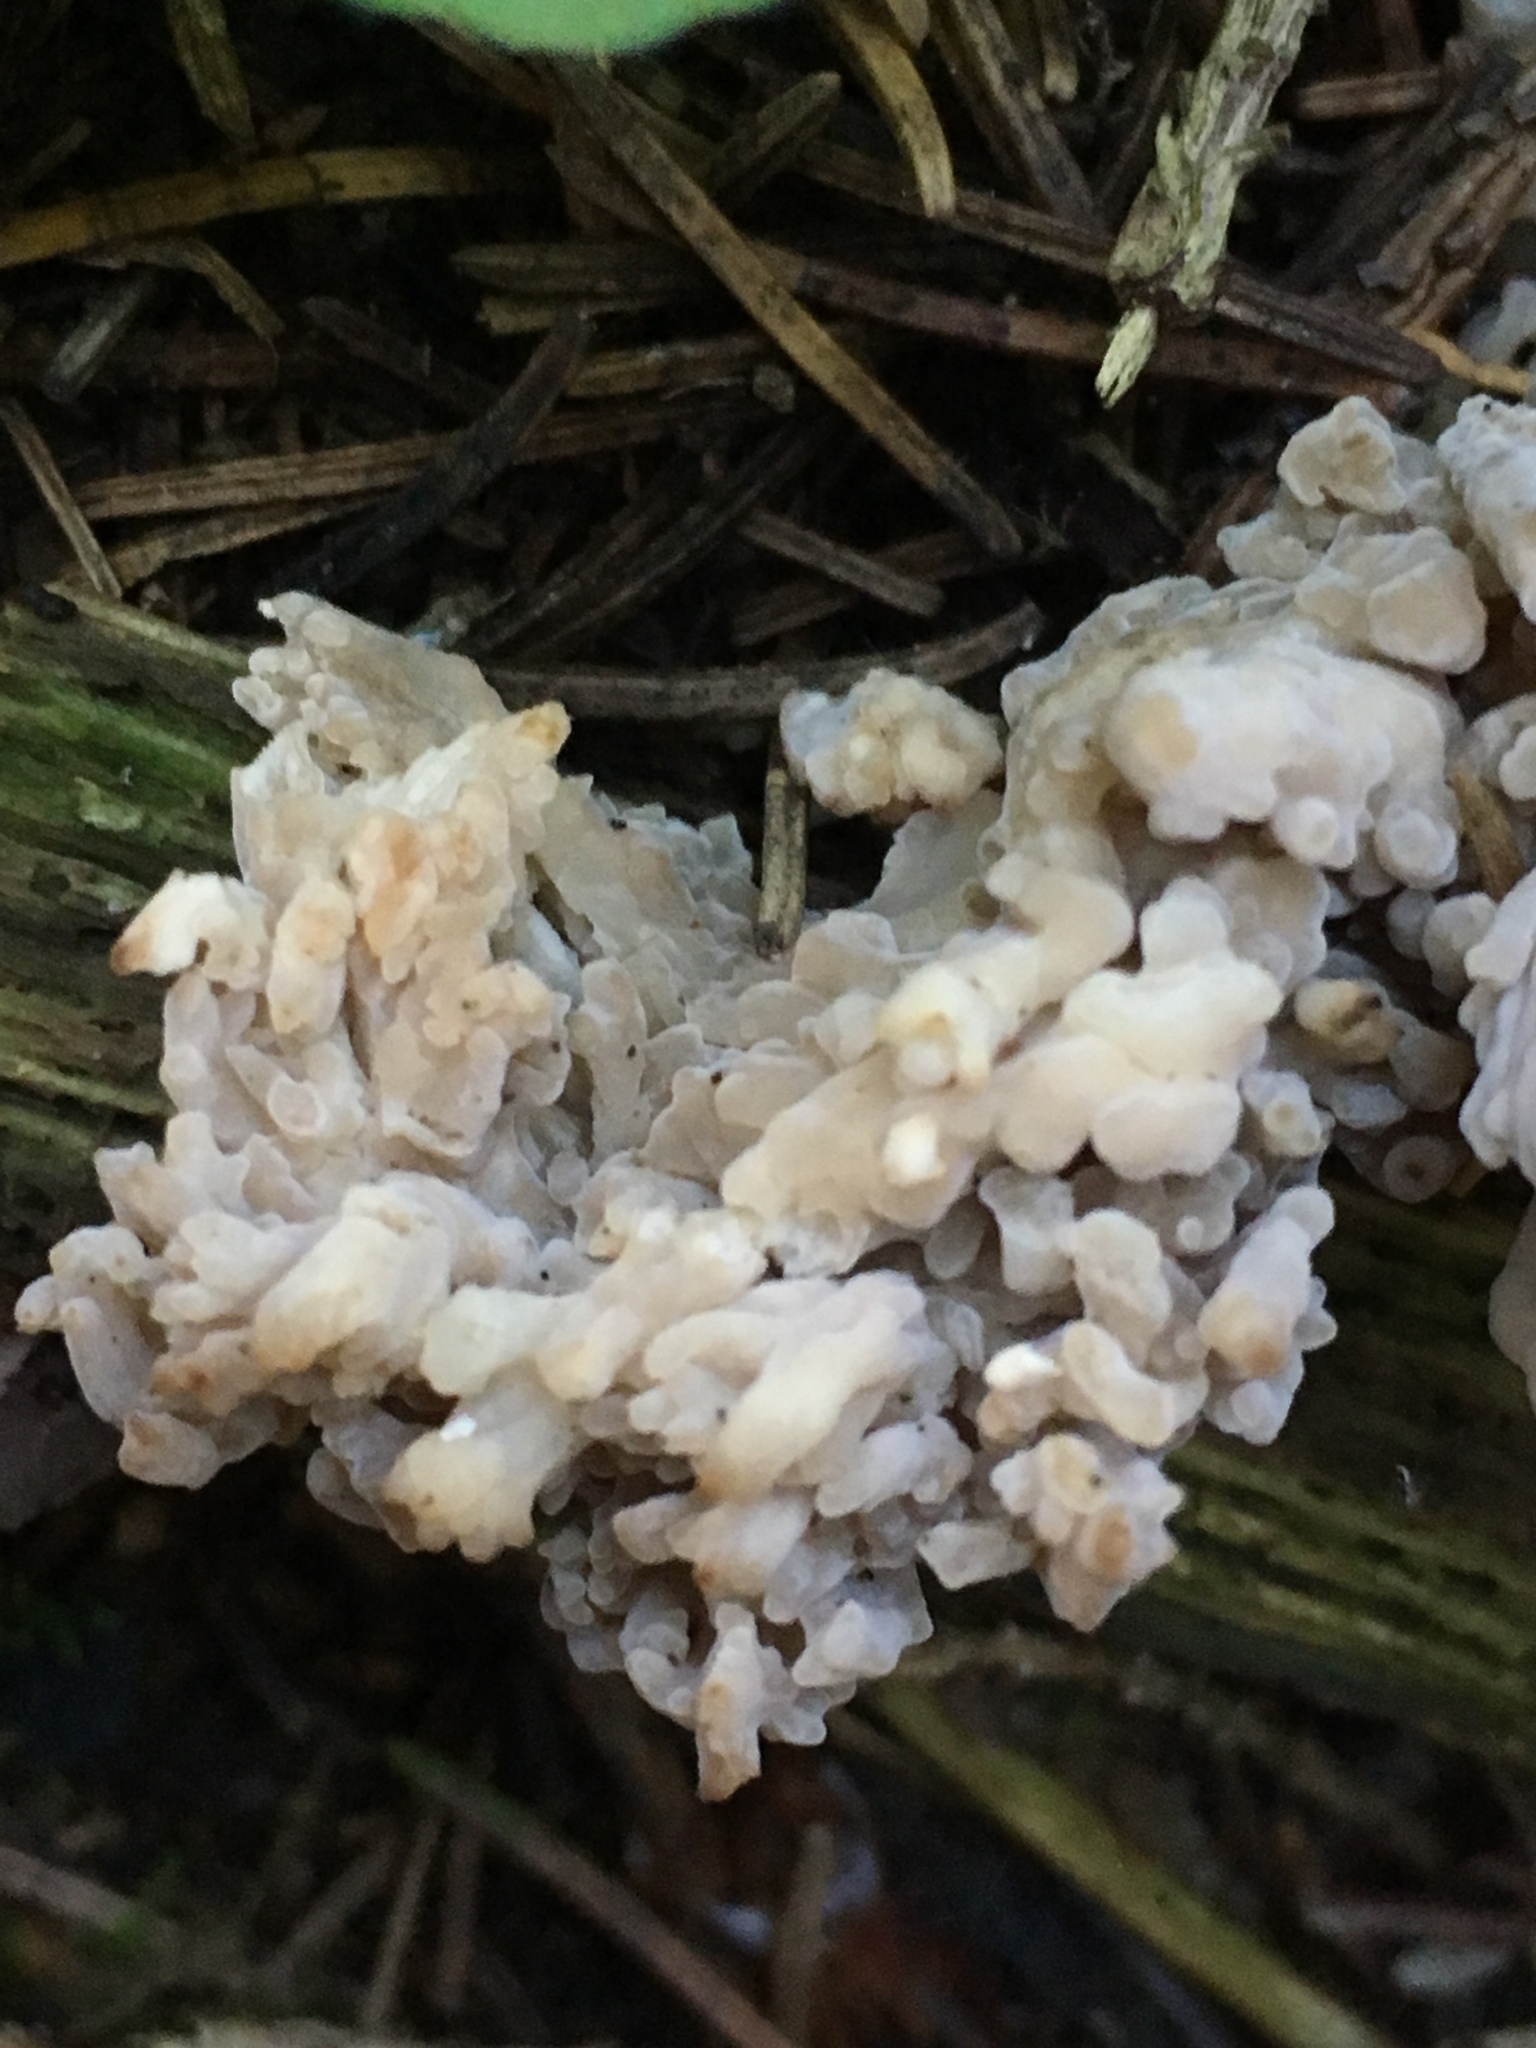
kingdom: Fungi
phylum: Basidiomycota
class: Agaricomycetes
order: Cantharellales
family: Hydnaceae
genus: Clavulina
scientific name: Clavulina coralloides
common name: Crested coral
